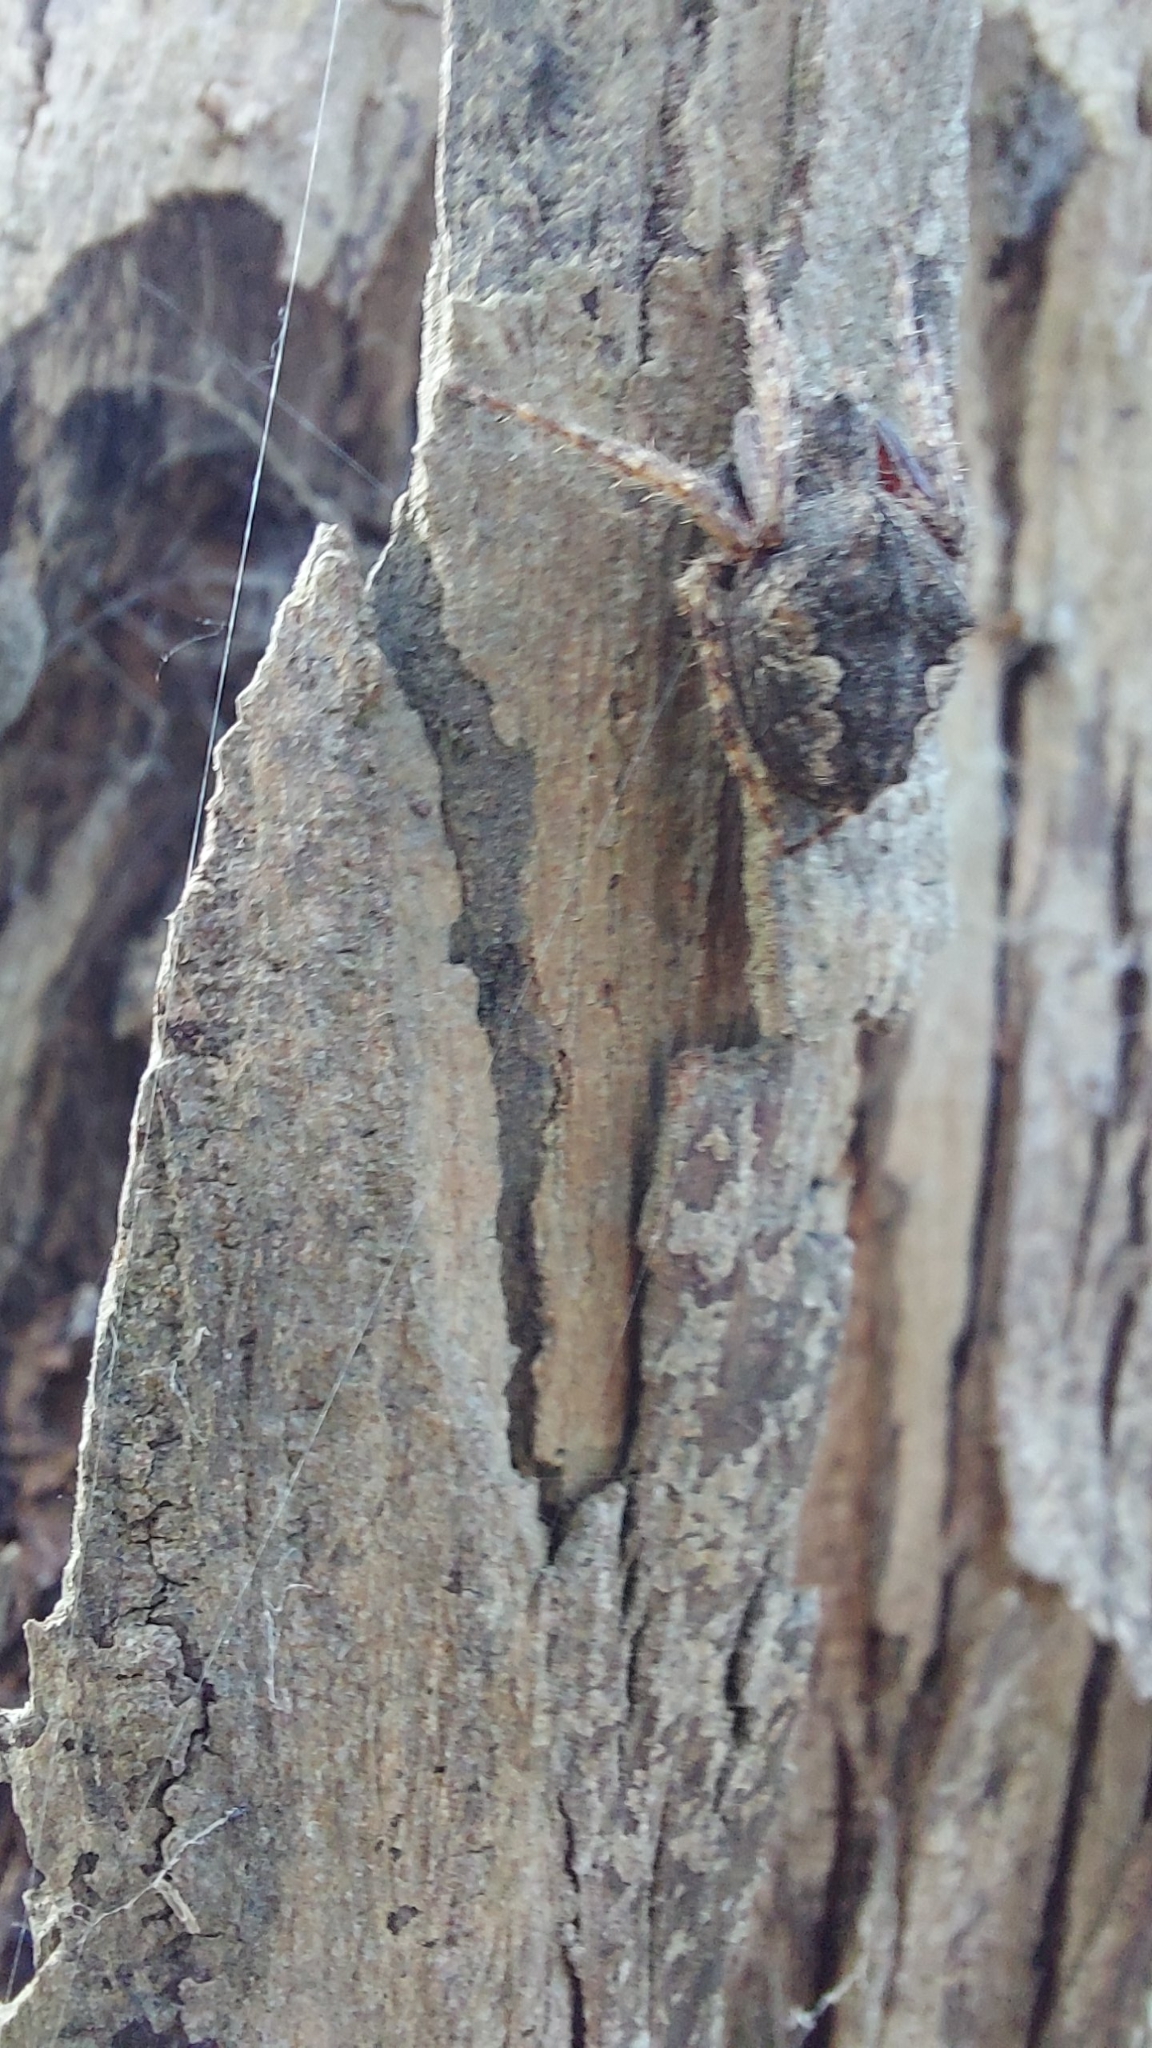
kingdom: Animalia
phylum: Arthropoda
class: Arachnida
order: Araneae
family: Araneidae
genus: Eriophora
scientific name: Eriophora pustulosa
